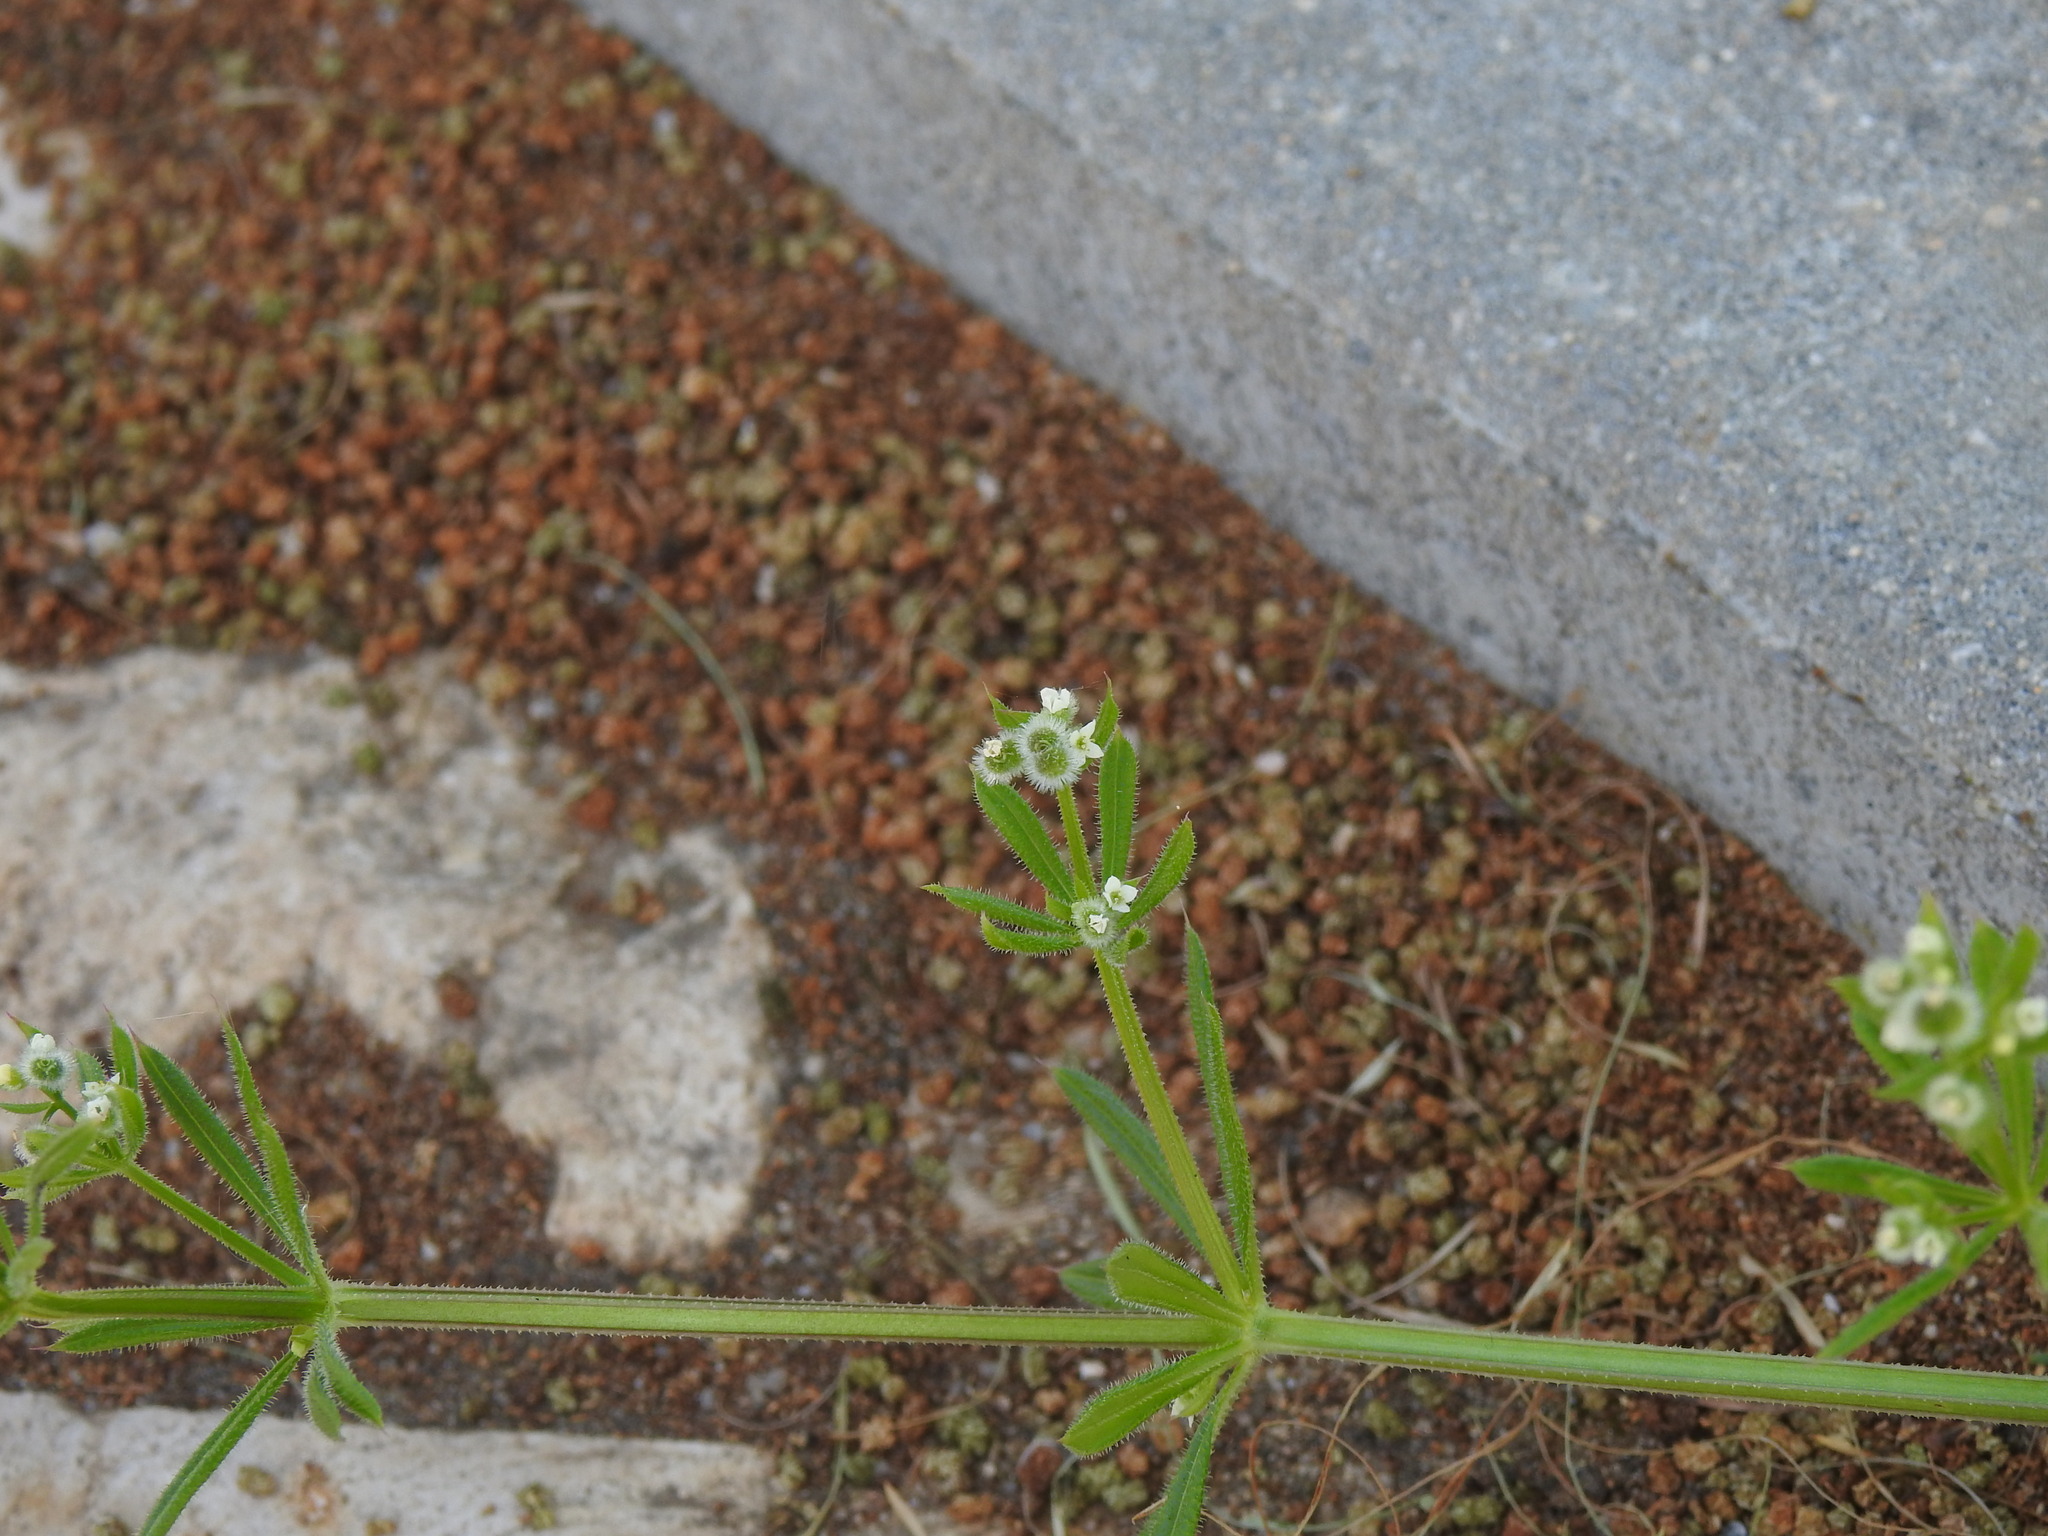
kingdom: Plantae
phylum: Tracheophyta
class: Magnoliopsida
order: Gentianales
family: Rubiaceae
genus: Galium
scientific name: Galium aparine
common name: Cleavers
